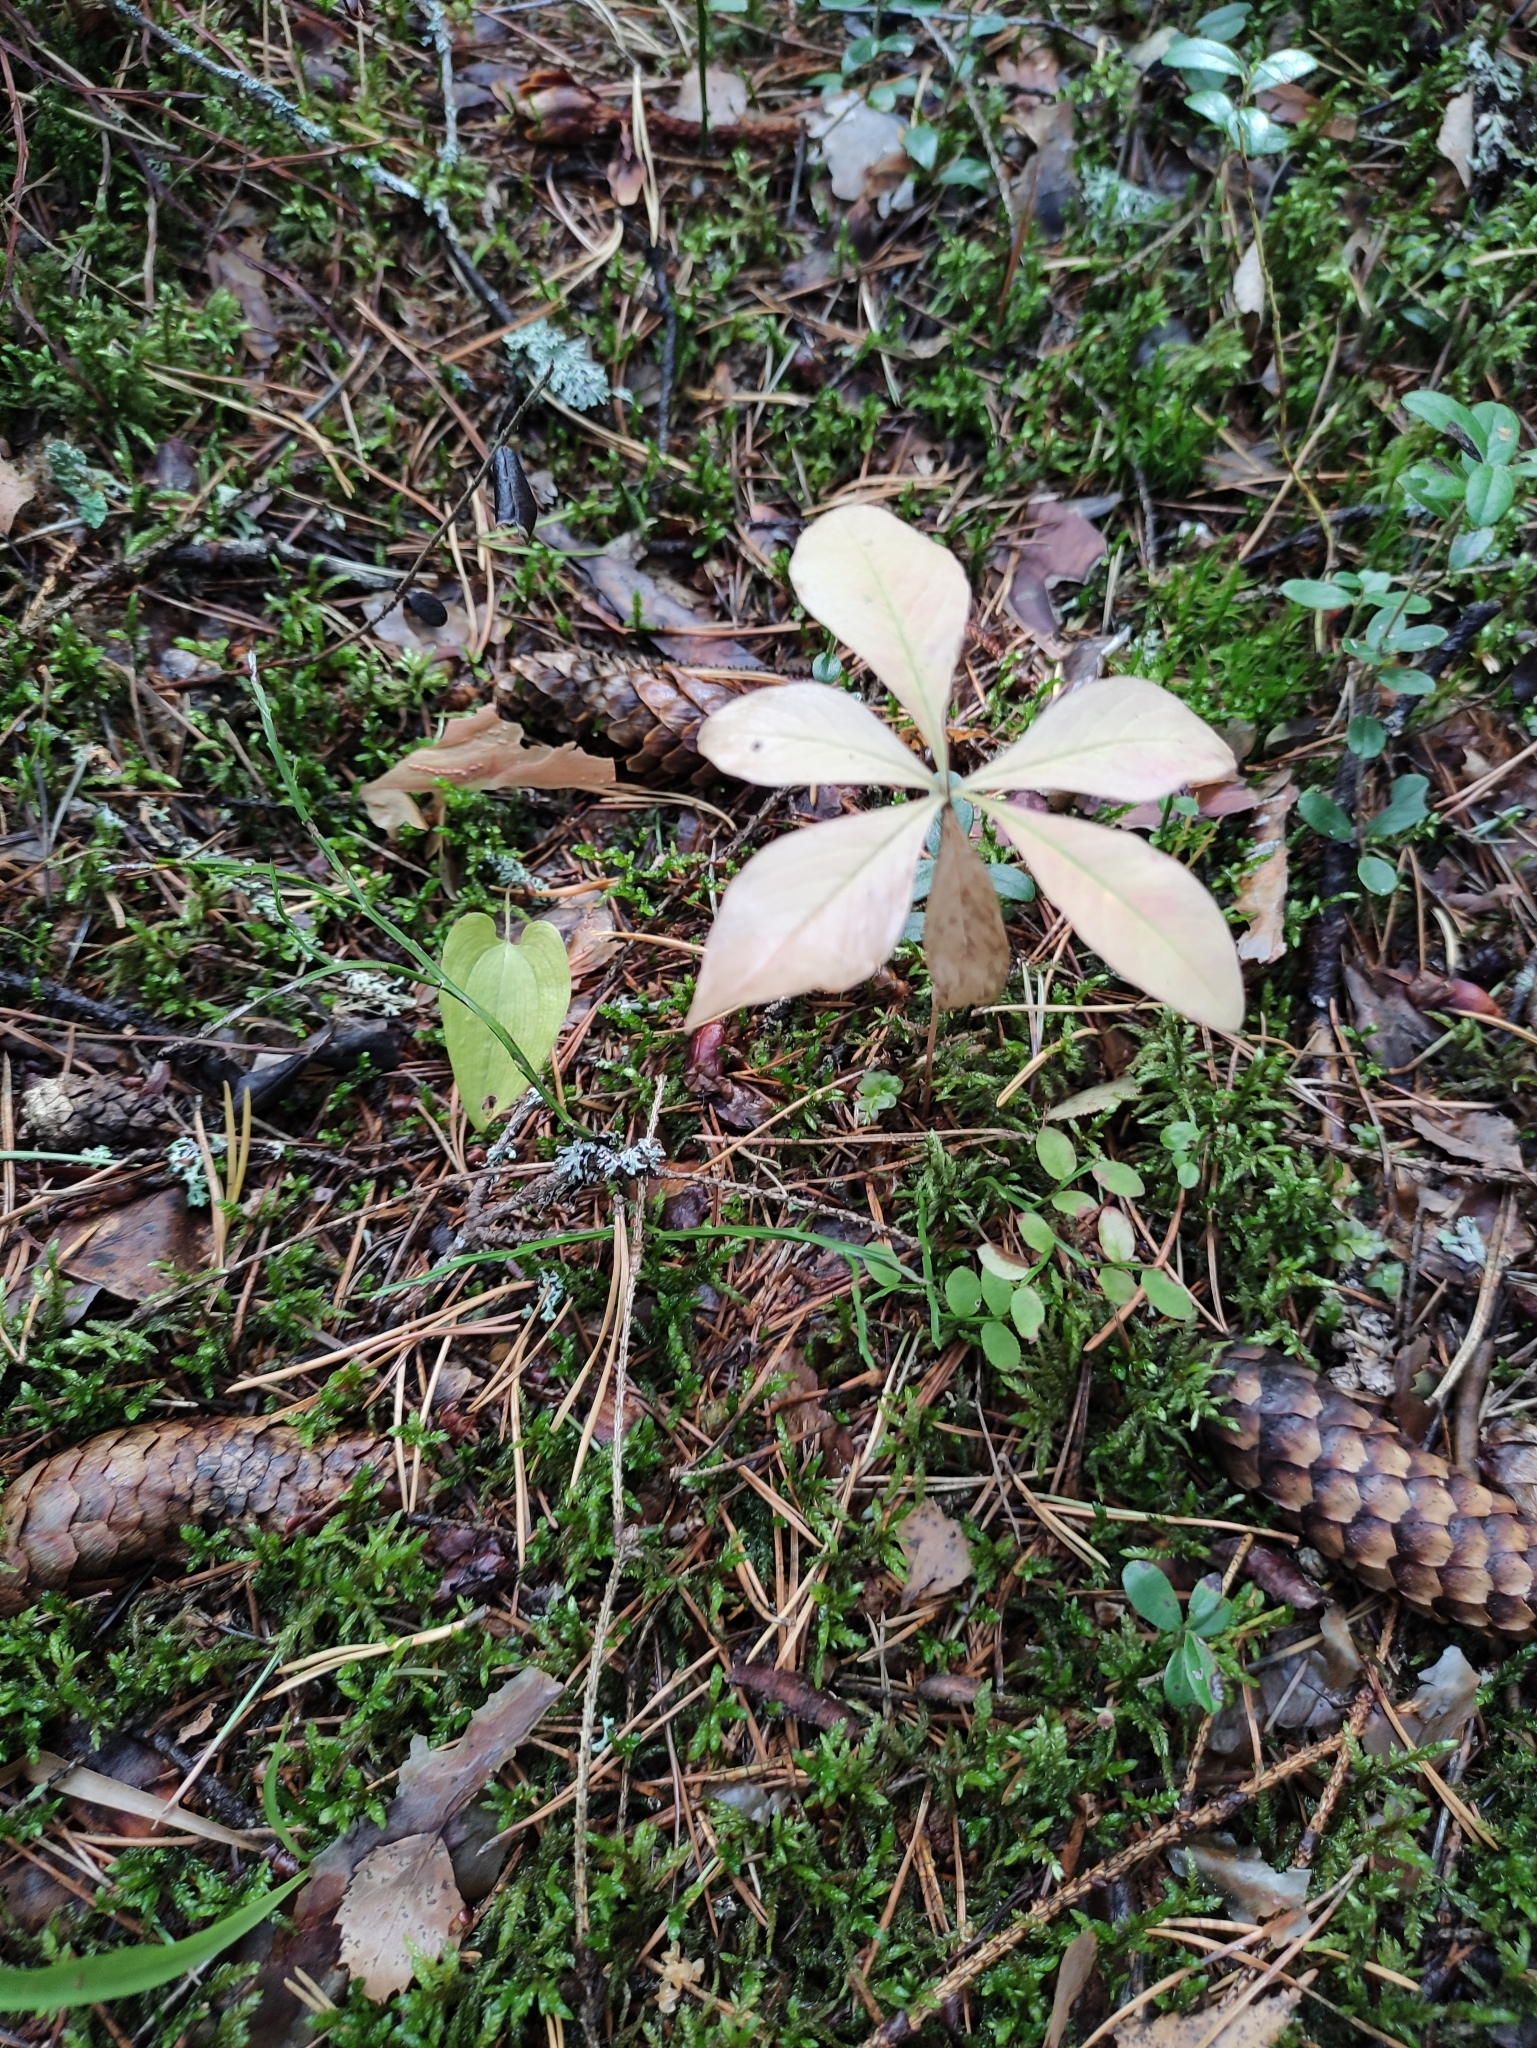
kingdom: Plantae
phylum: Tracheophyta
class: Magnoliopsida
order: Ericales
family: Primulaceae
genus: Lysimachia
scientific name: Lysimachia europaea
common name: Arctic starflower
